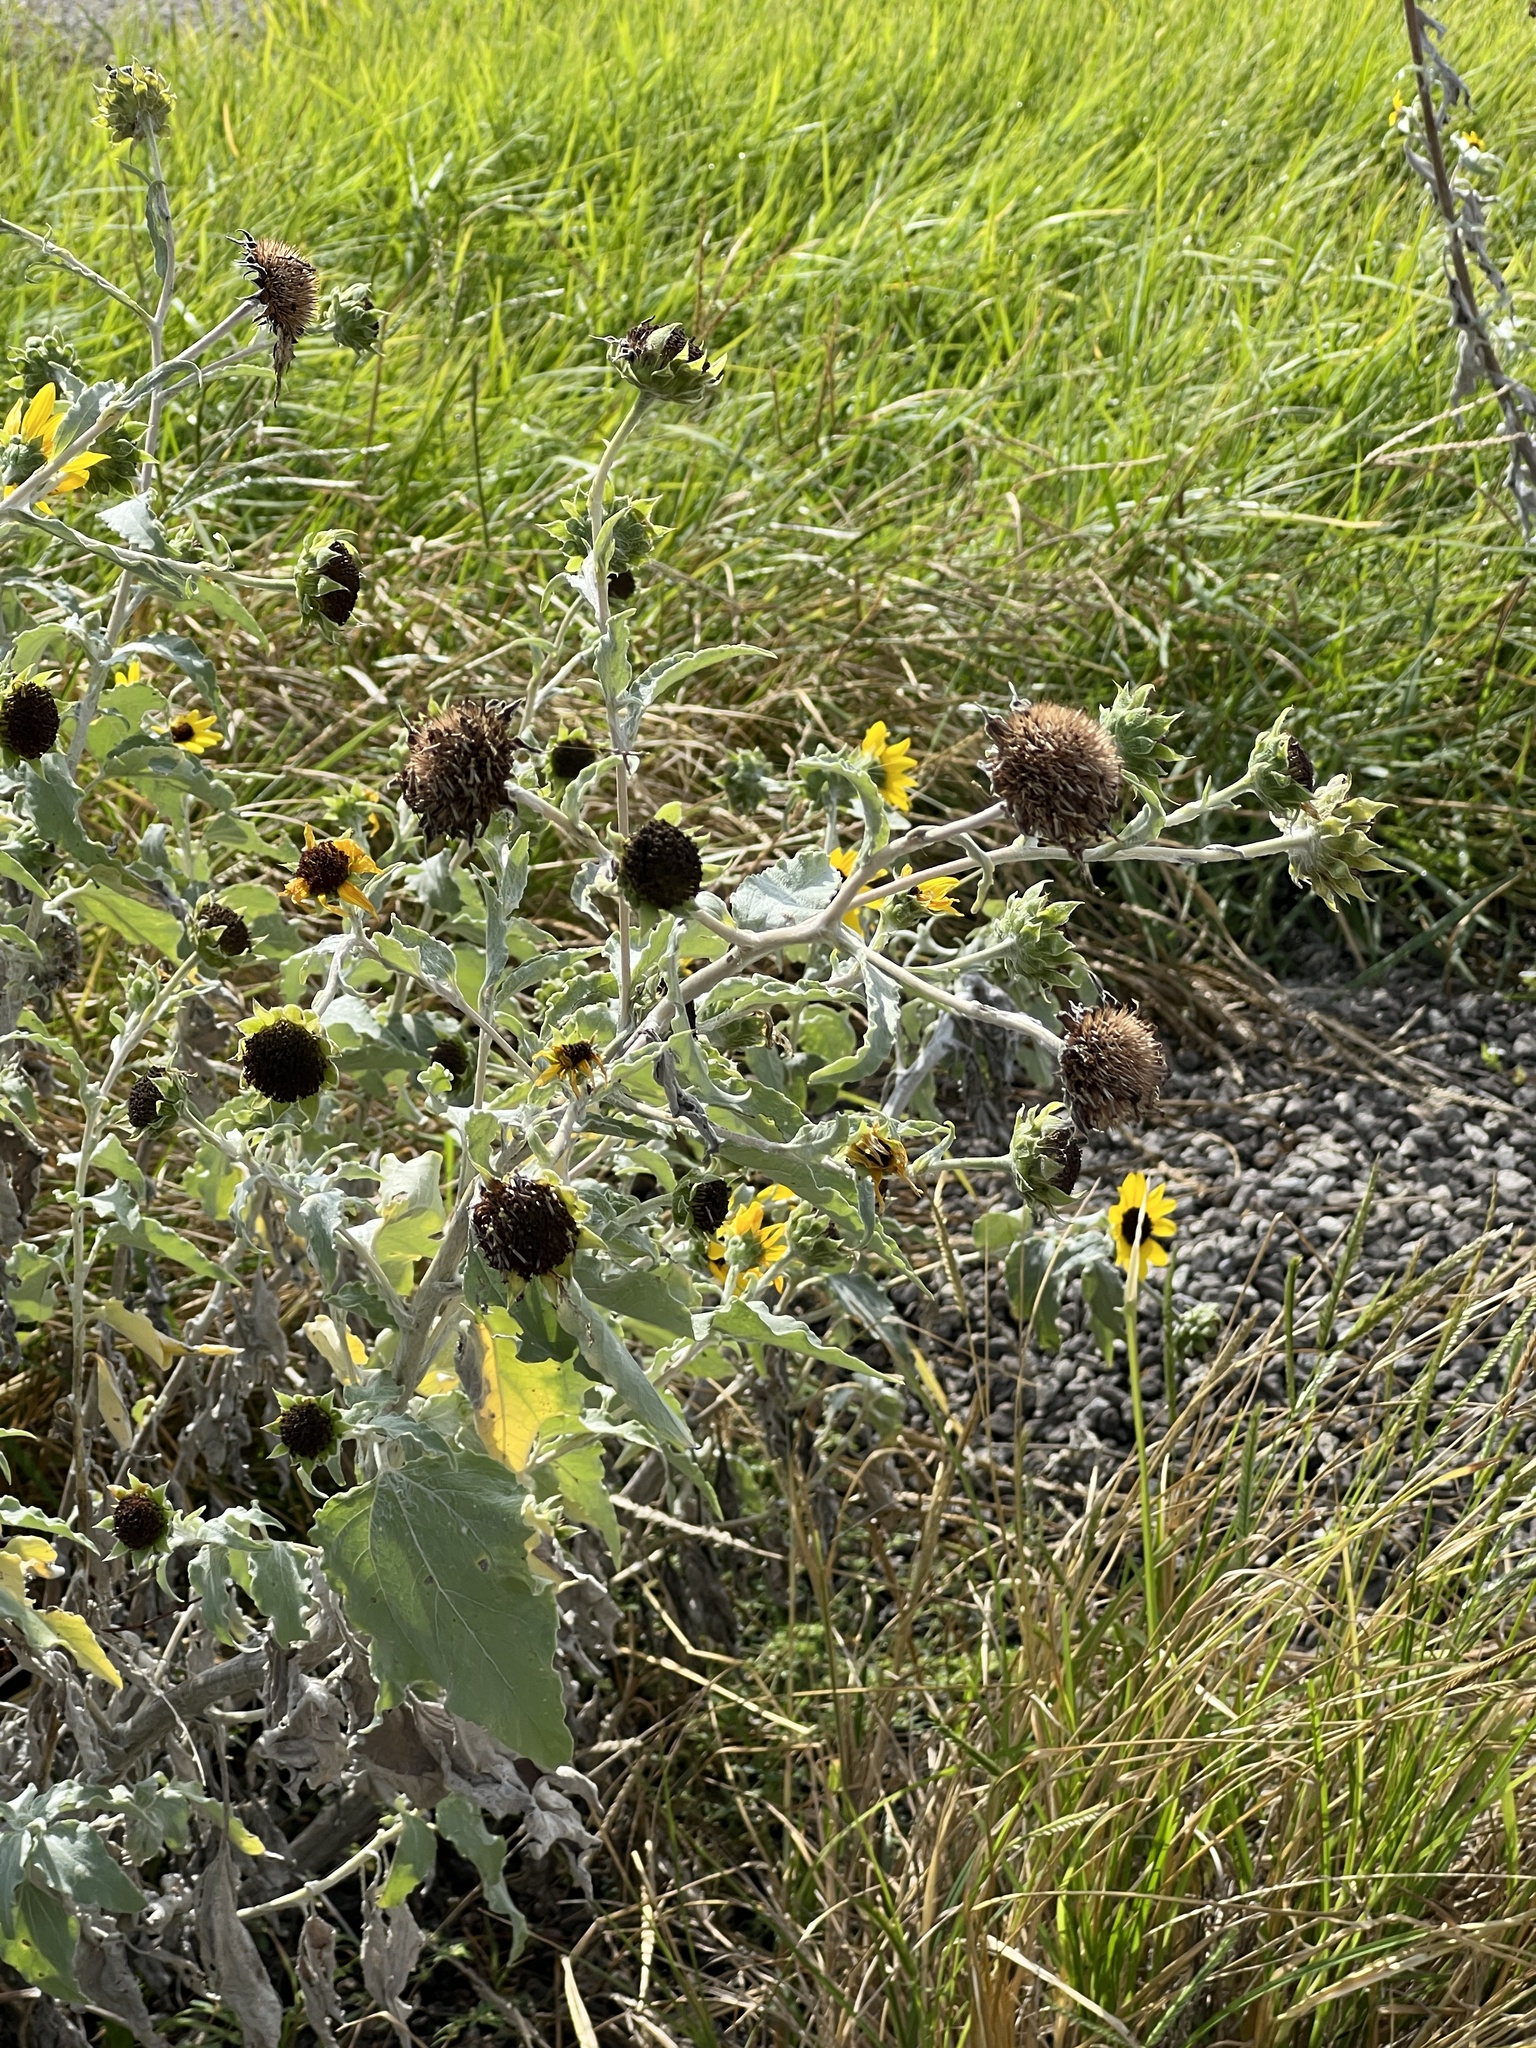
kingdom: Plantae
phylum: Tracheophyta
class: Magnoliopsida
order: Asterales
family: Asteraceae
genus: Helianthus
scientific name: Helianthus argophyllus
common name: Silverleaf sunflower
